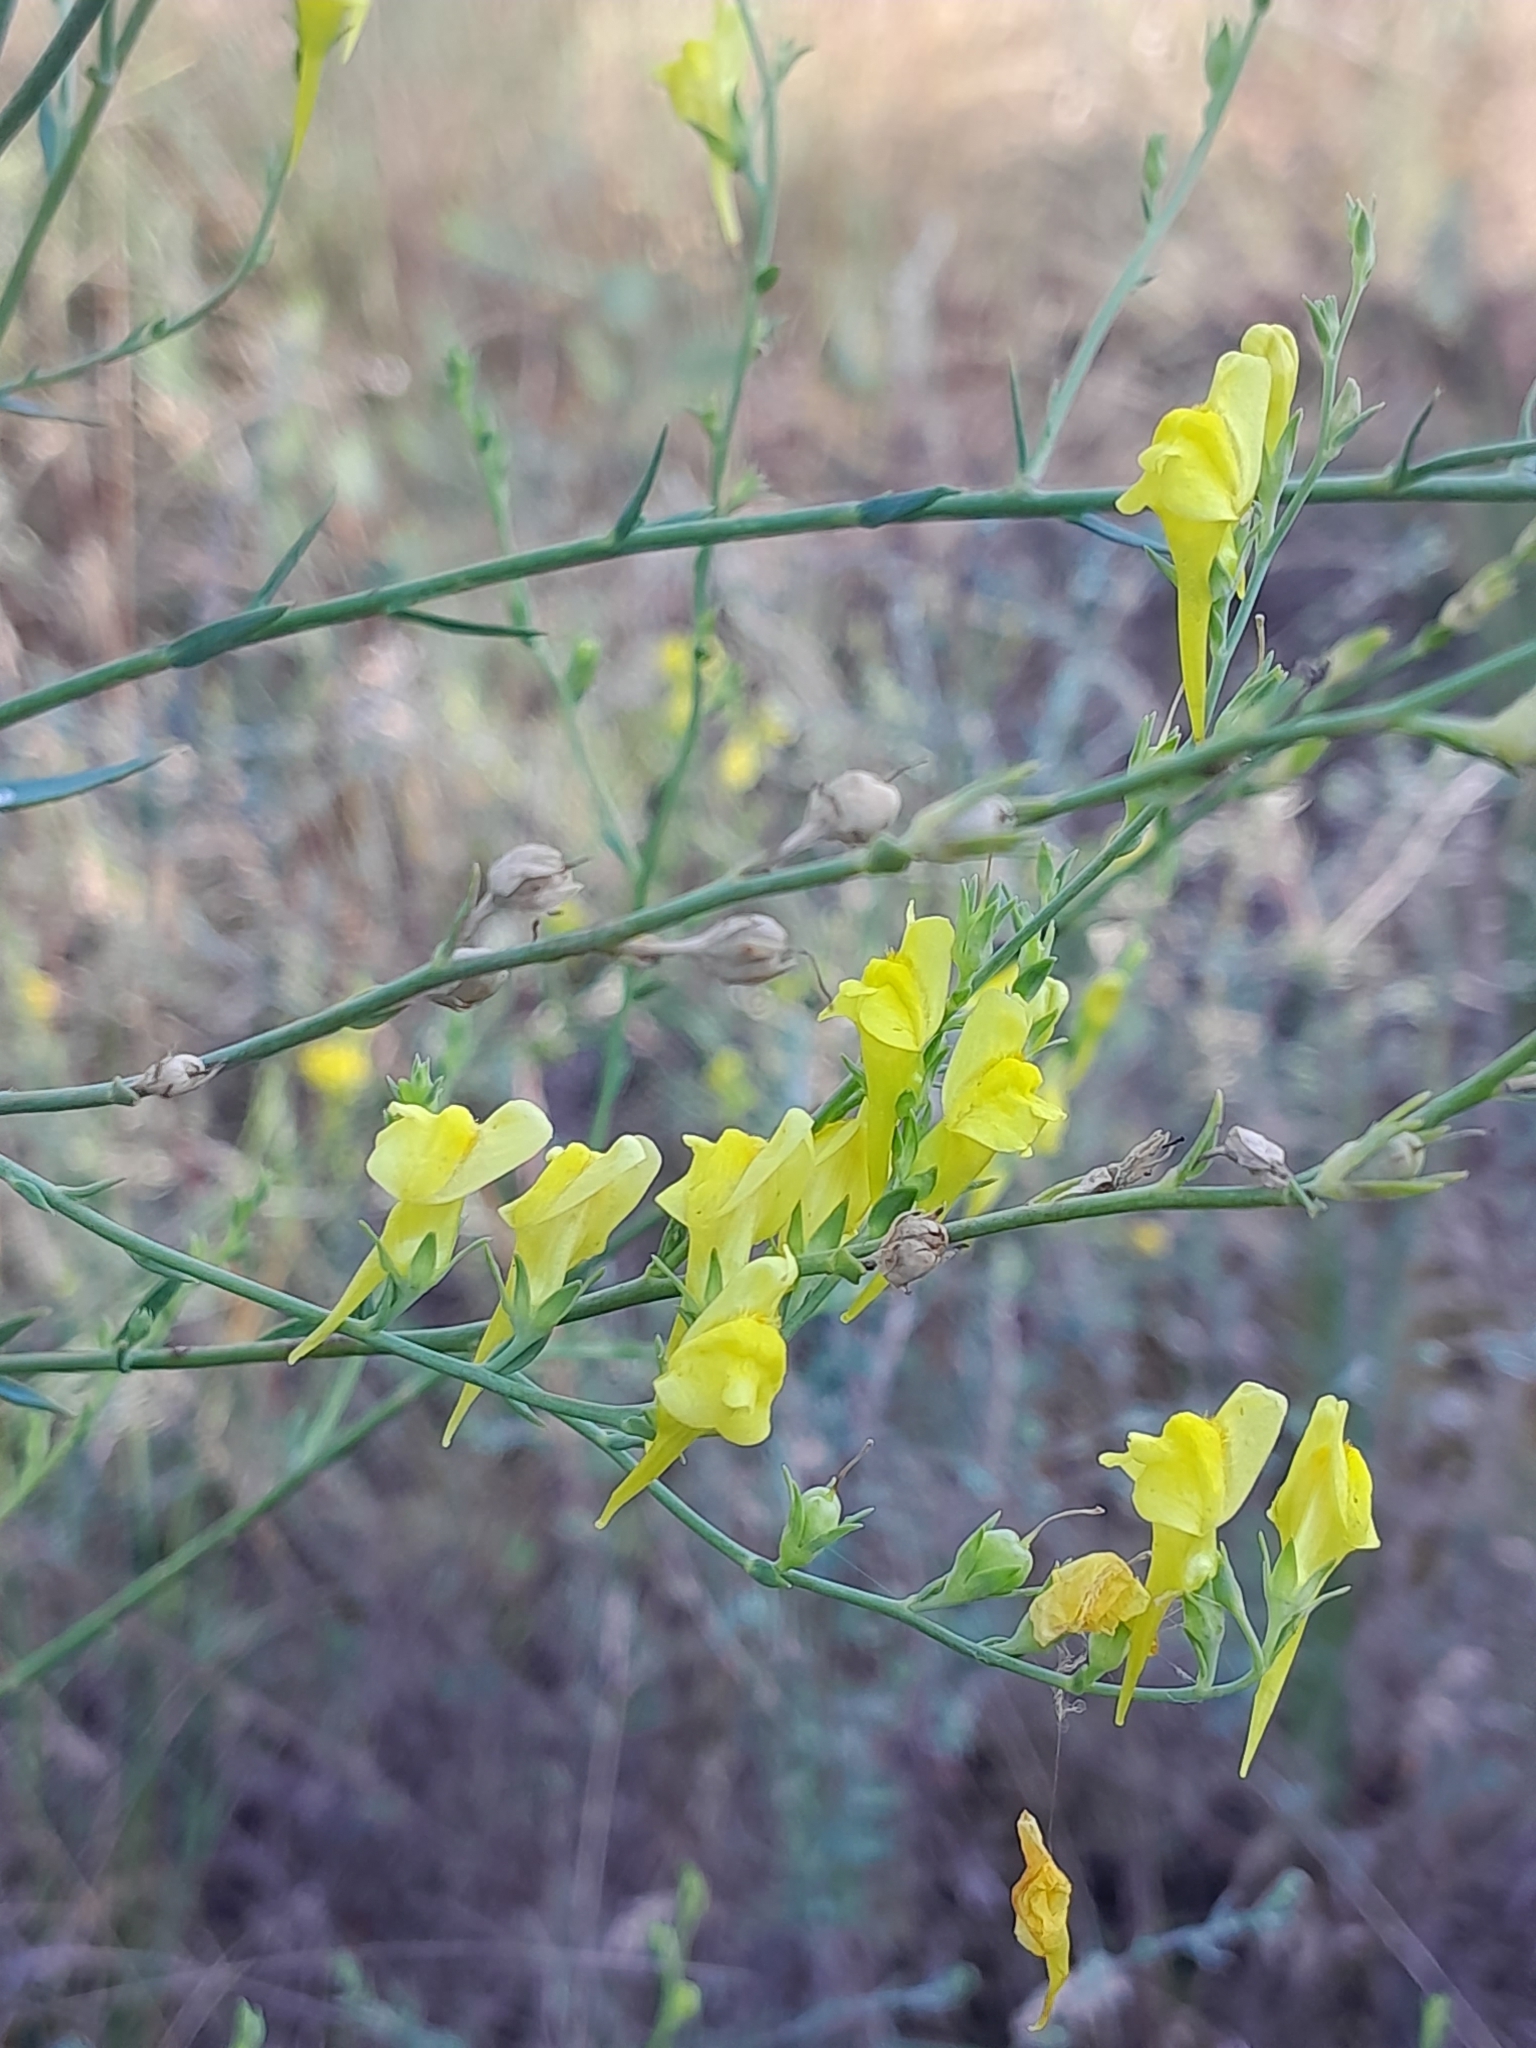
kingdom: Plantae
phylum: Tracheophyta
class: Magnoliopsida
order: Lamiales
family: Plantaginaceae
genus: Linaria
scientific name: Linaria genistifolia
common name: Broomleaf toadflax
